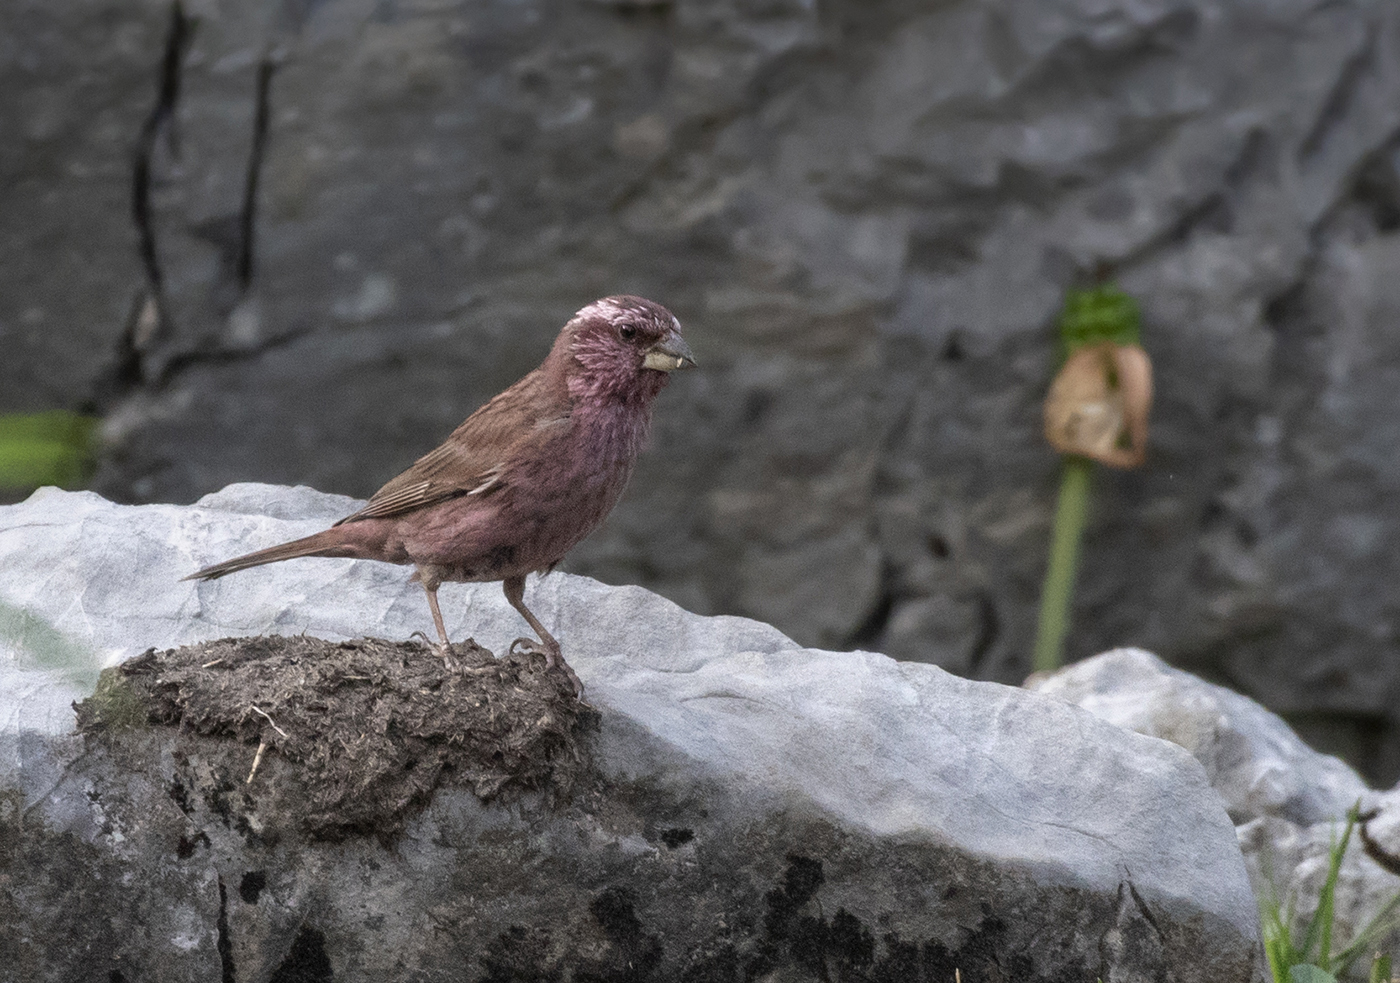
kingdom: Animalia
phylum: Chordata
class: Aves
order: Passeriformes
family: Fringillidae
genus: Carpodacus
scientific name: Carpodacus grandis
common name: Blyth's rosefinch
